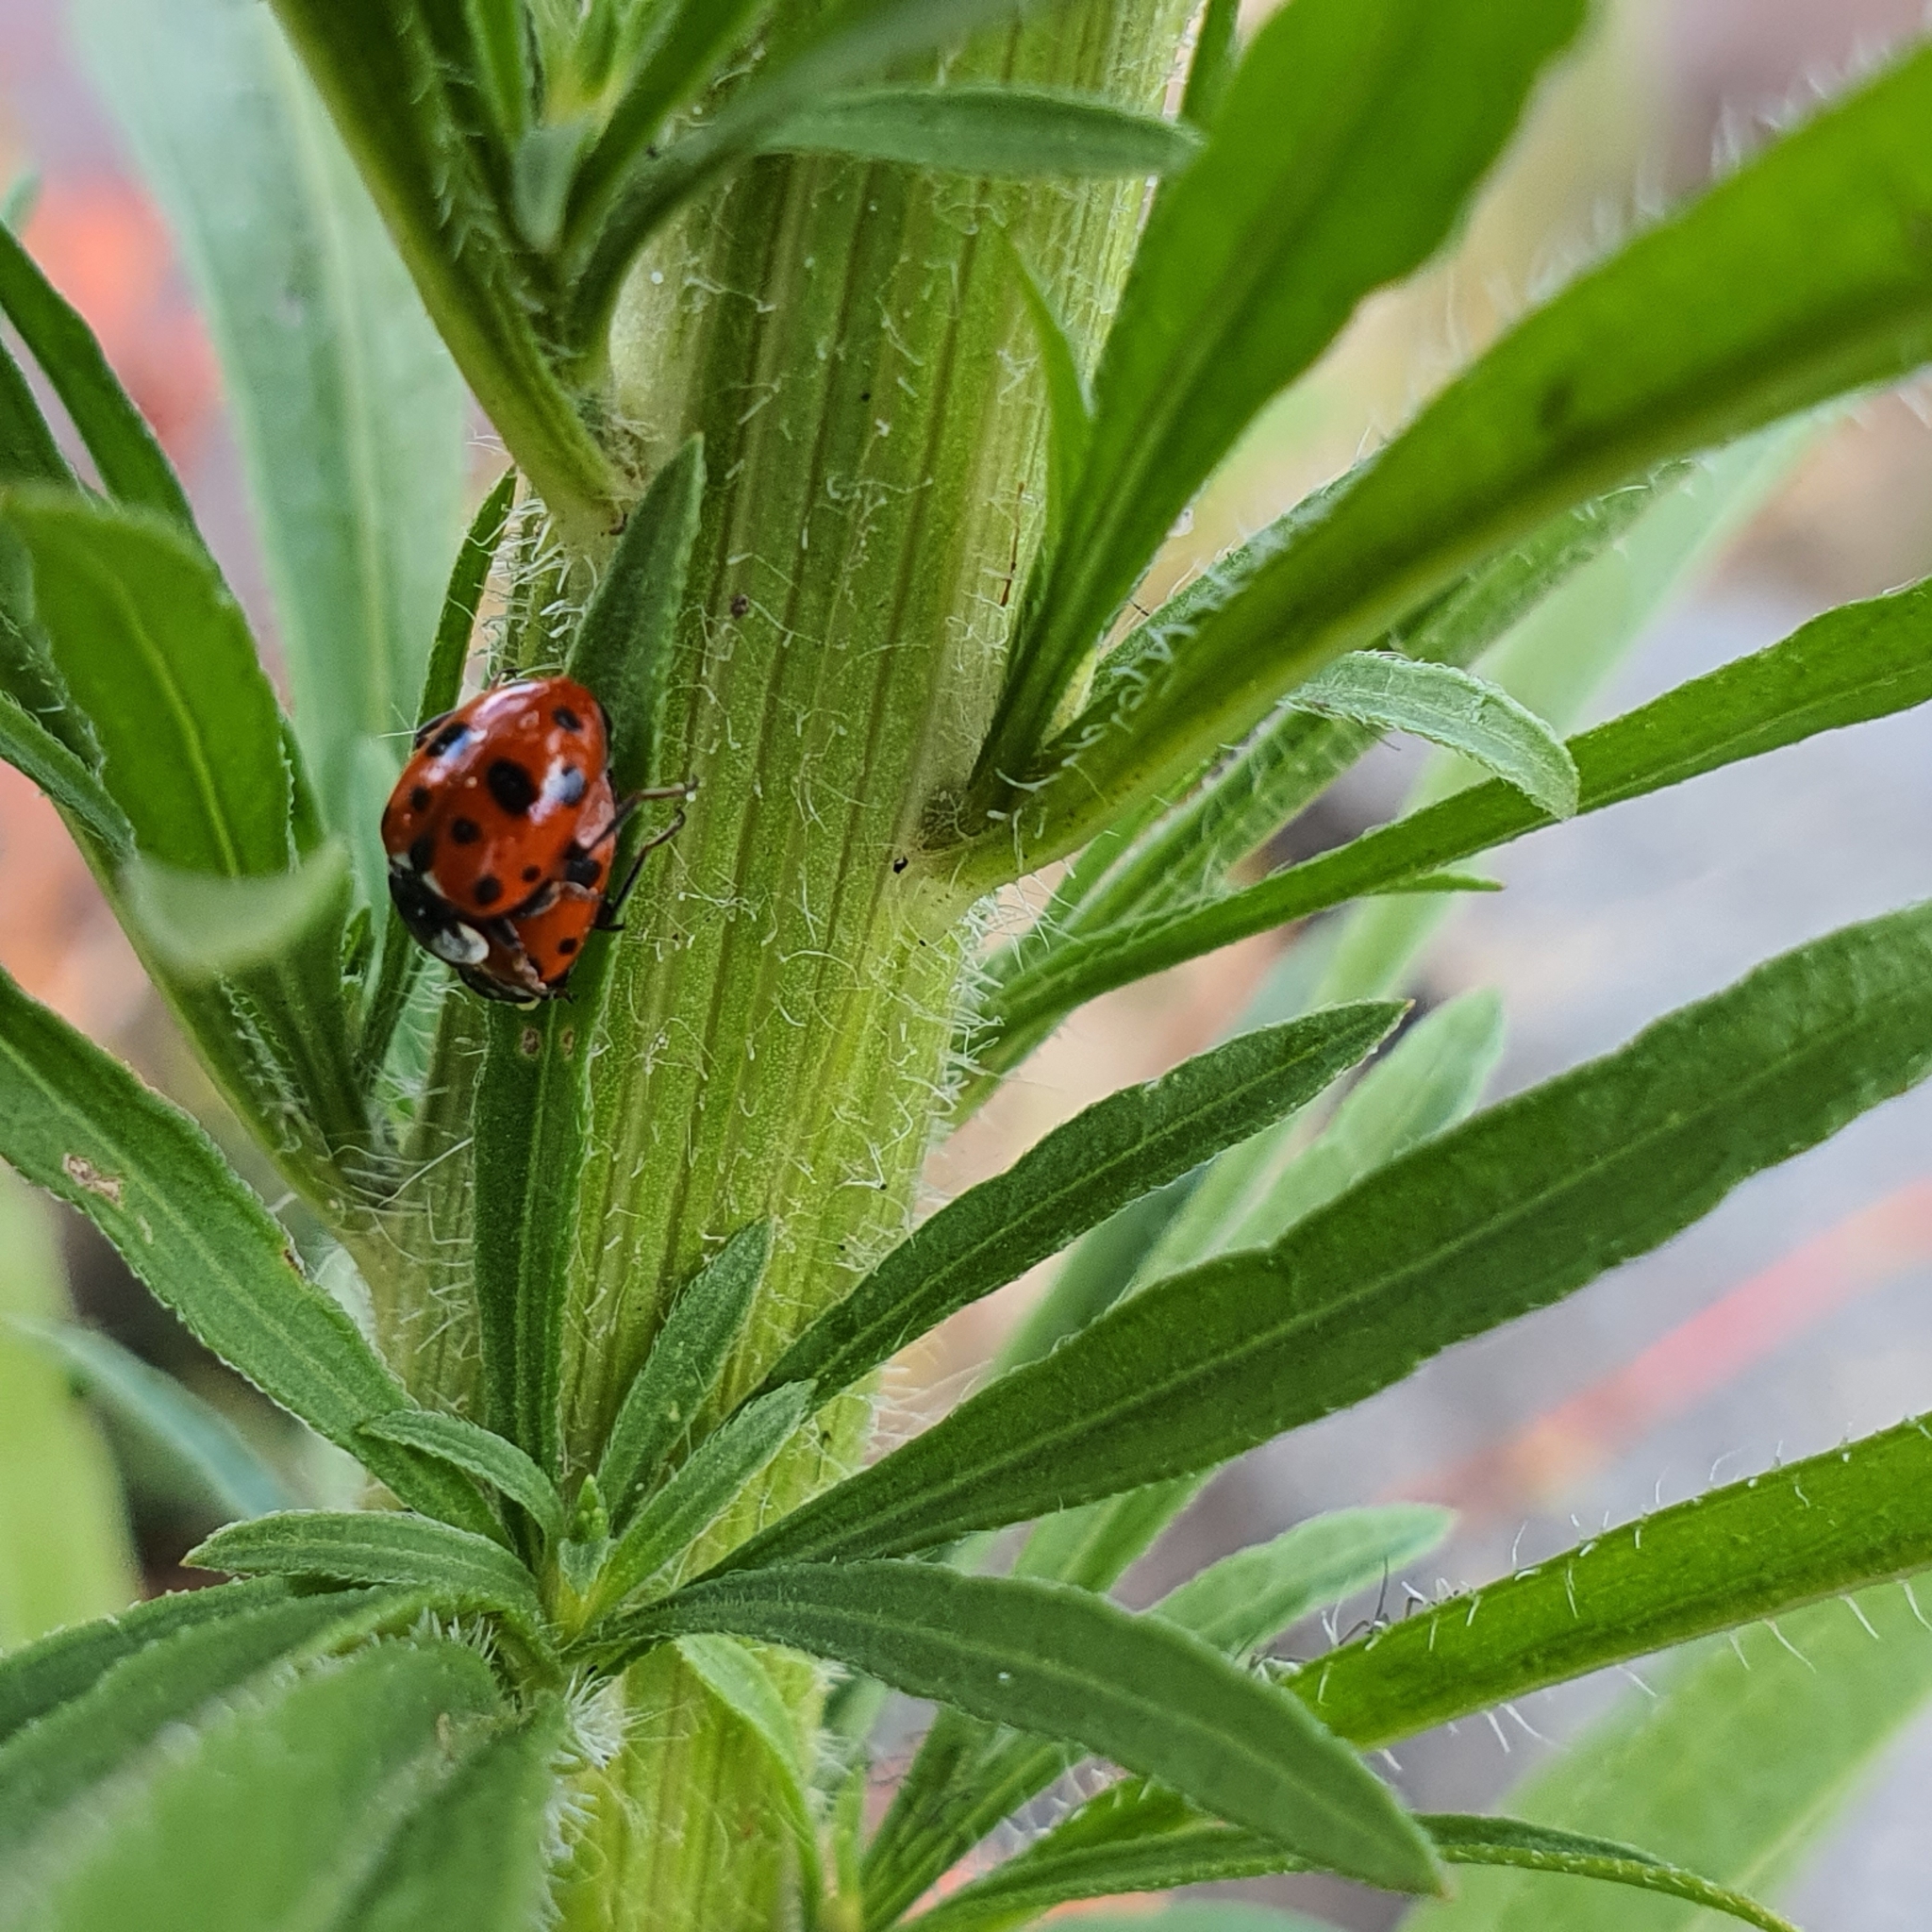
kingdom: Animalia
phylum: Arthropoda
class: Insecta
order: Coleoptera
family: Coccinellidae
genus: Hippodamia
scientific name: Hippodamia variegata
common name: Ladybird beetle
